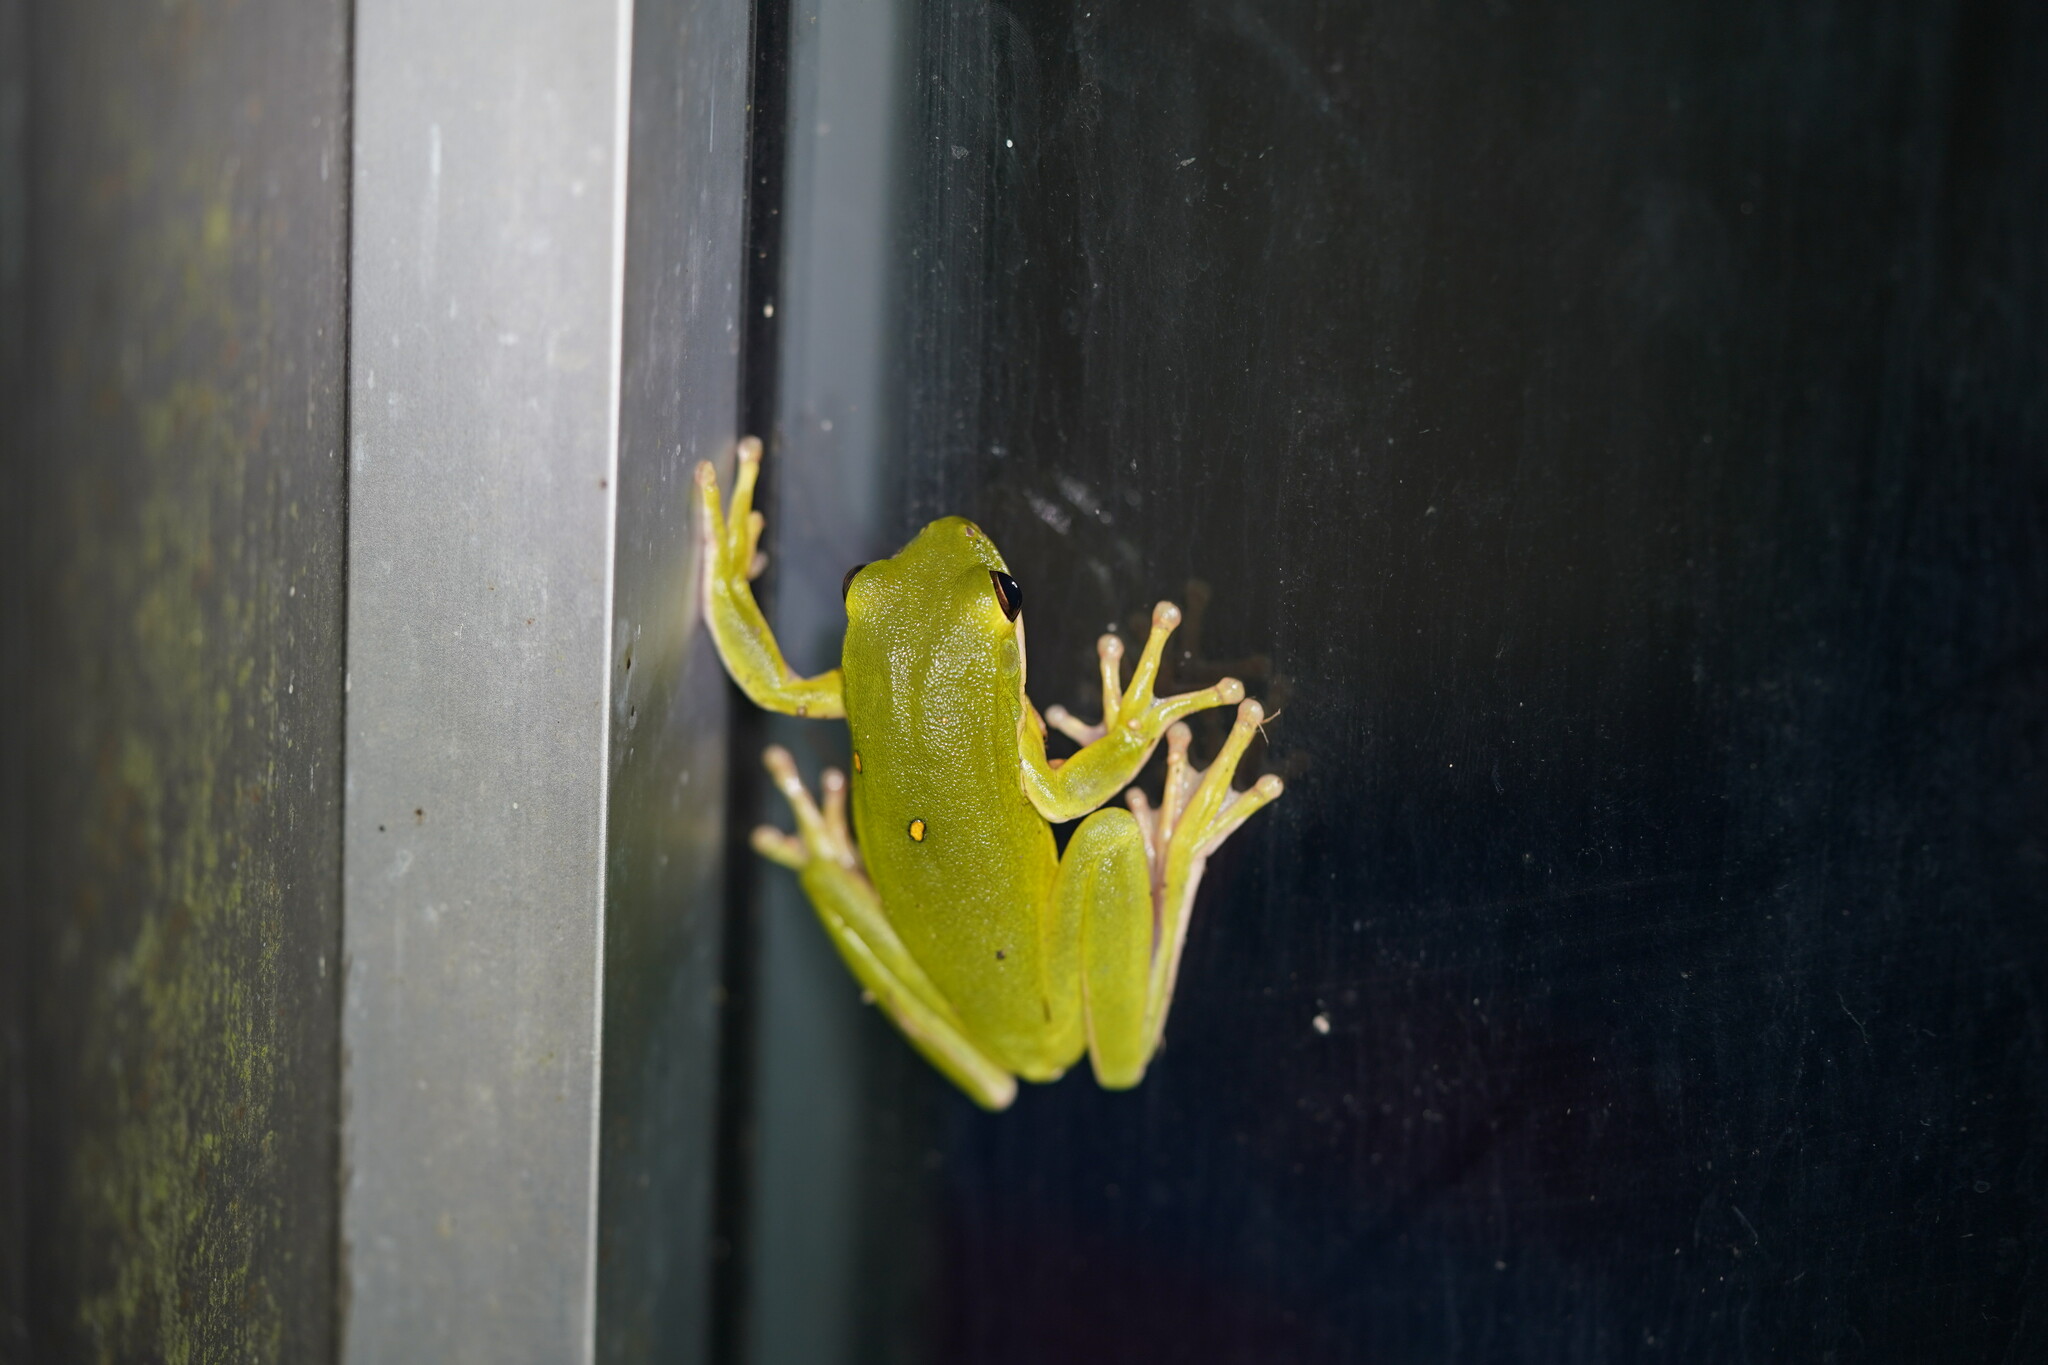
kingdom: Animalia
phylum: Chordata
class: Amphibia
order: Anura
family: Hylidae
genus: Dryophytes
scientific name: Dryophytes cinereus
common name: Green treefrog
